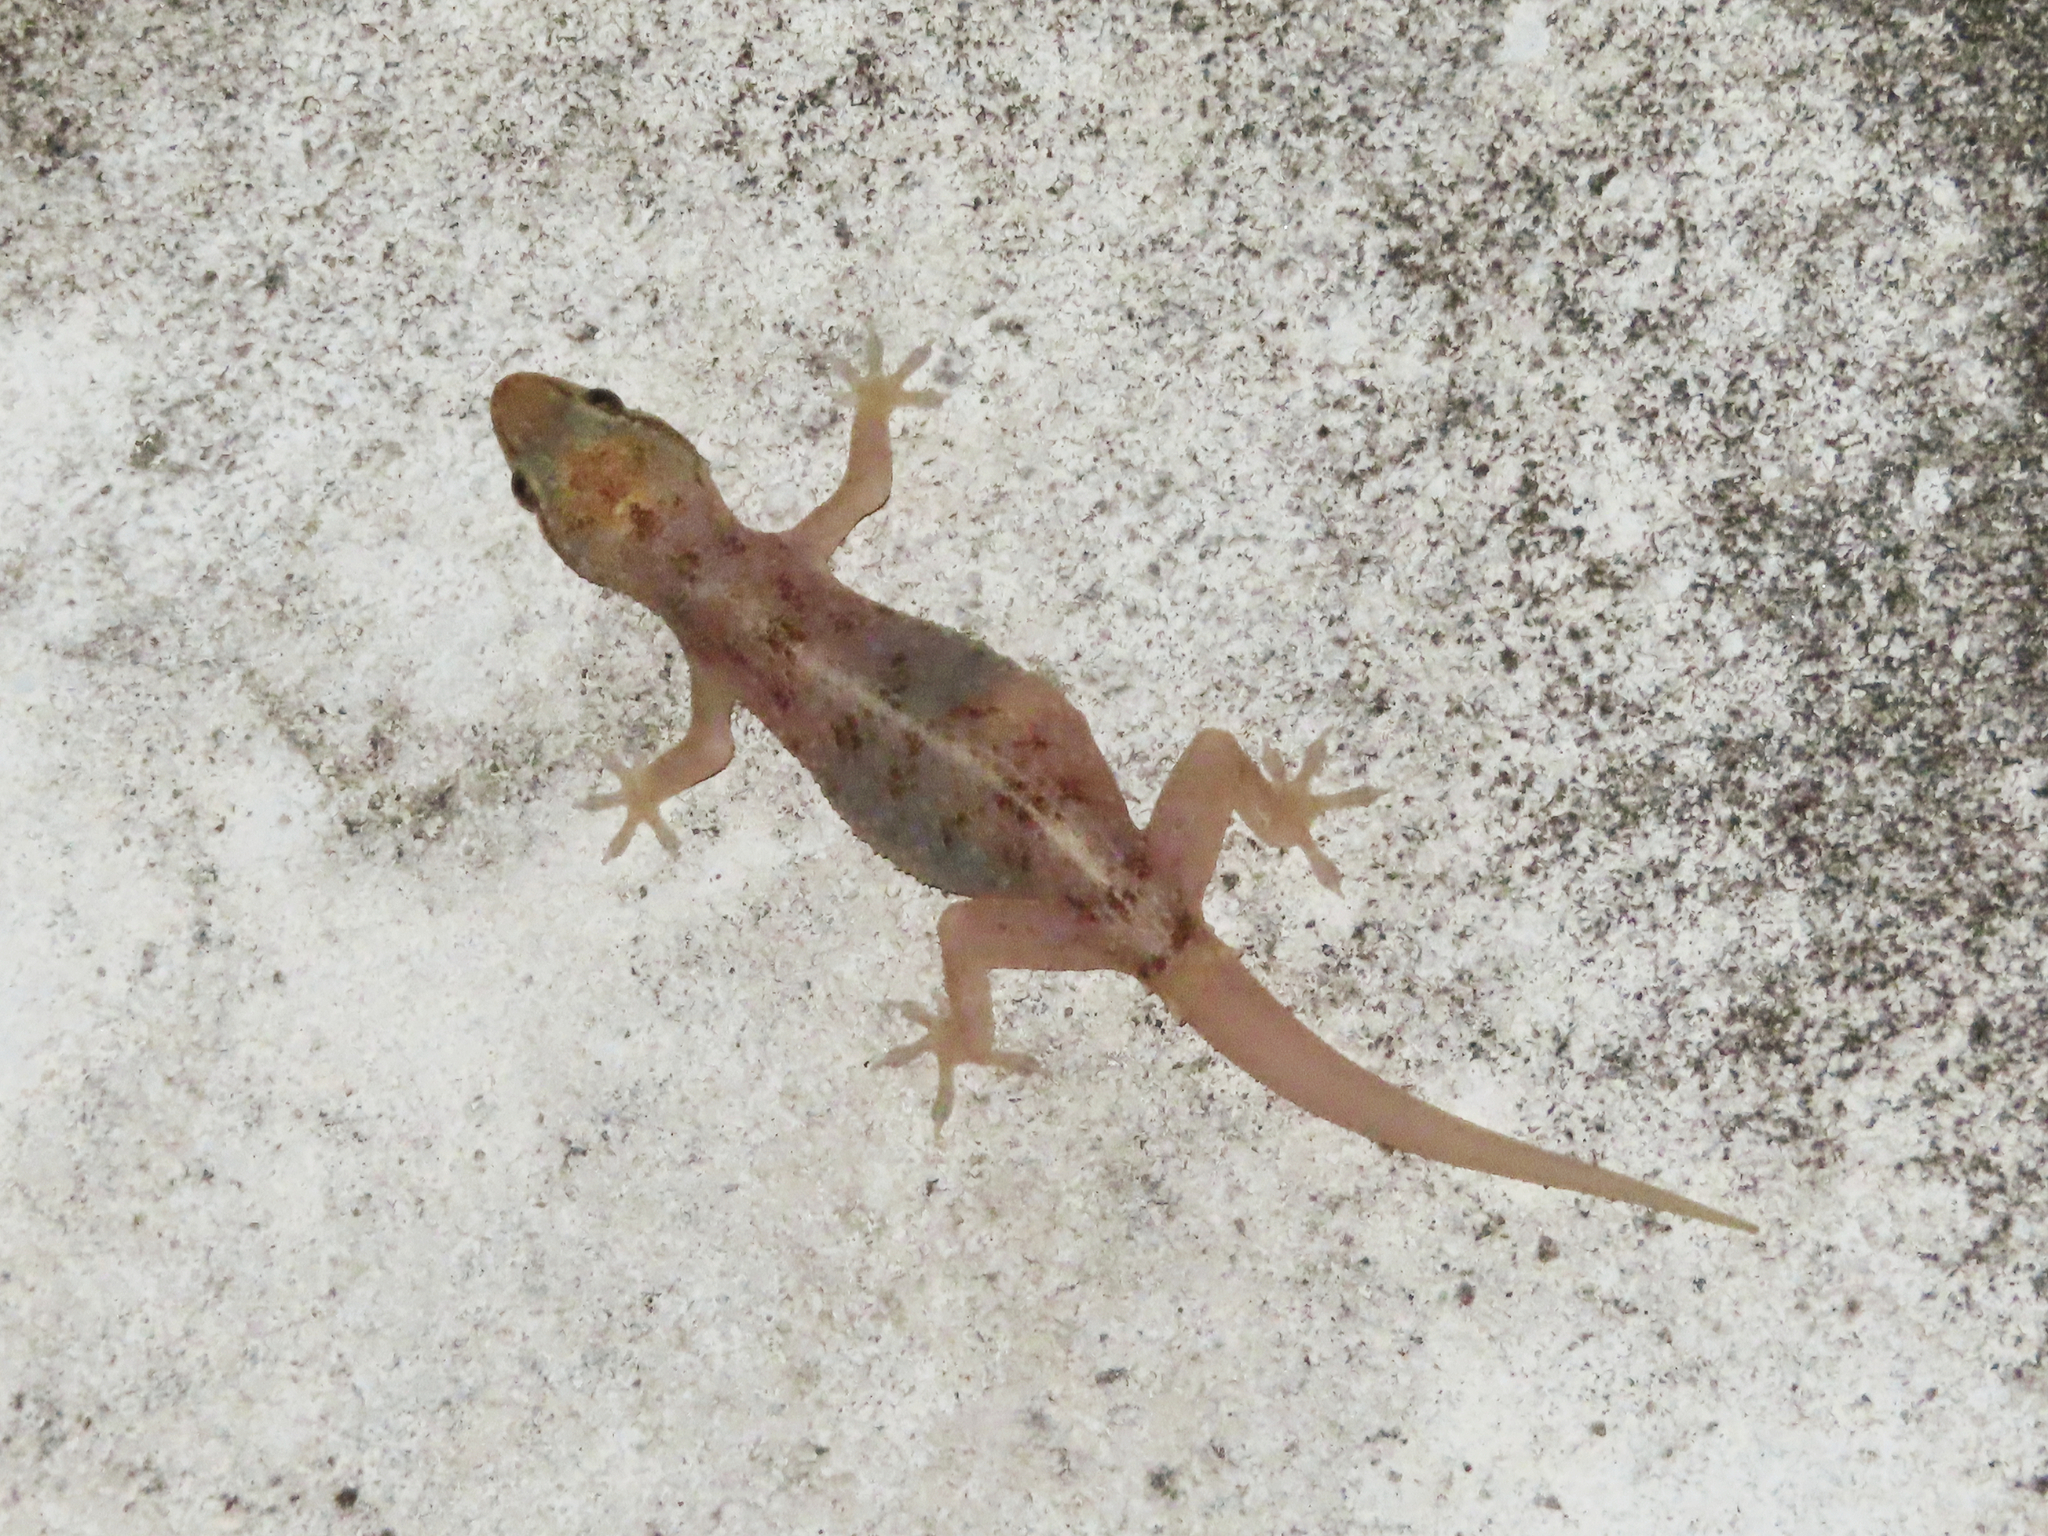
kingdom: Animalia
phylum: Chordata
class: Squamata
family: Gekkonidae
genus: Hemidactylus
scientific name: Hemidactylus parvimaculatus
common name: Spotted house gecko
